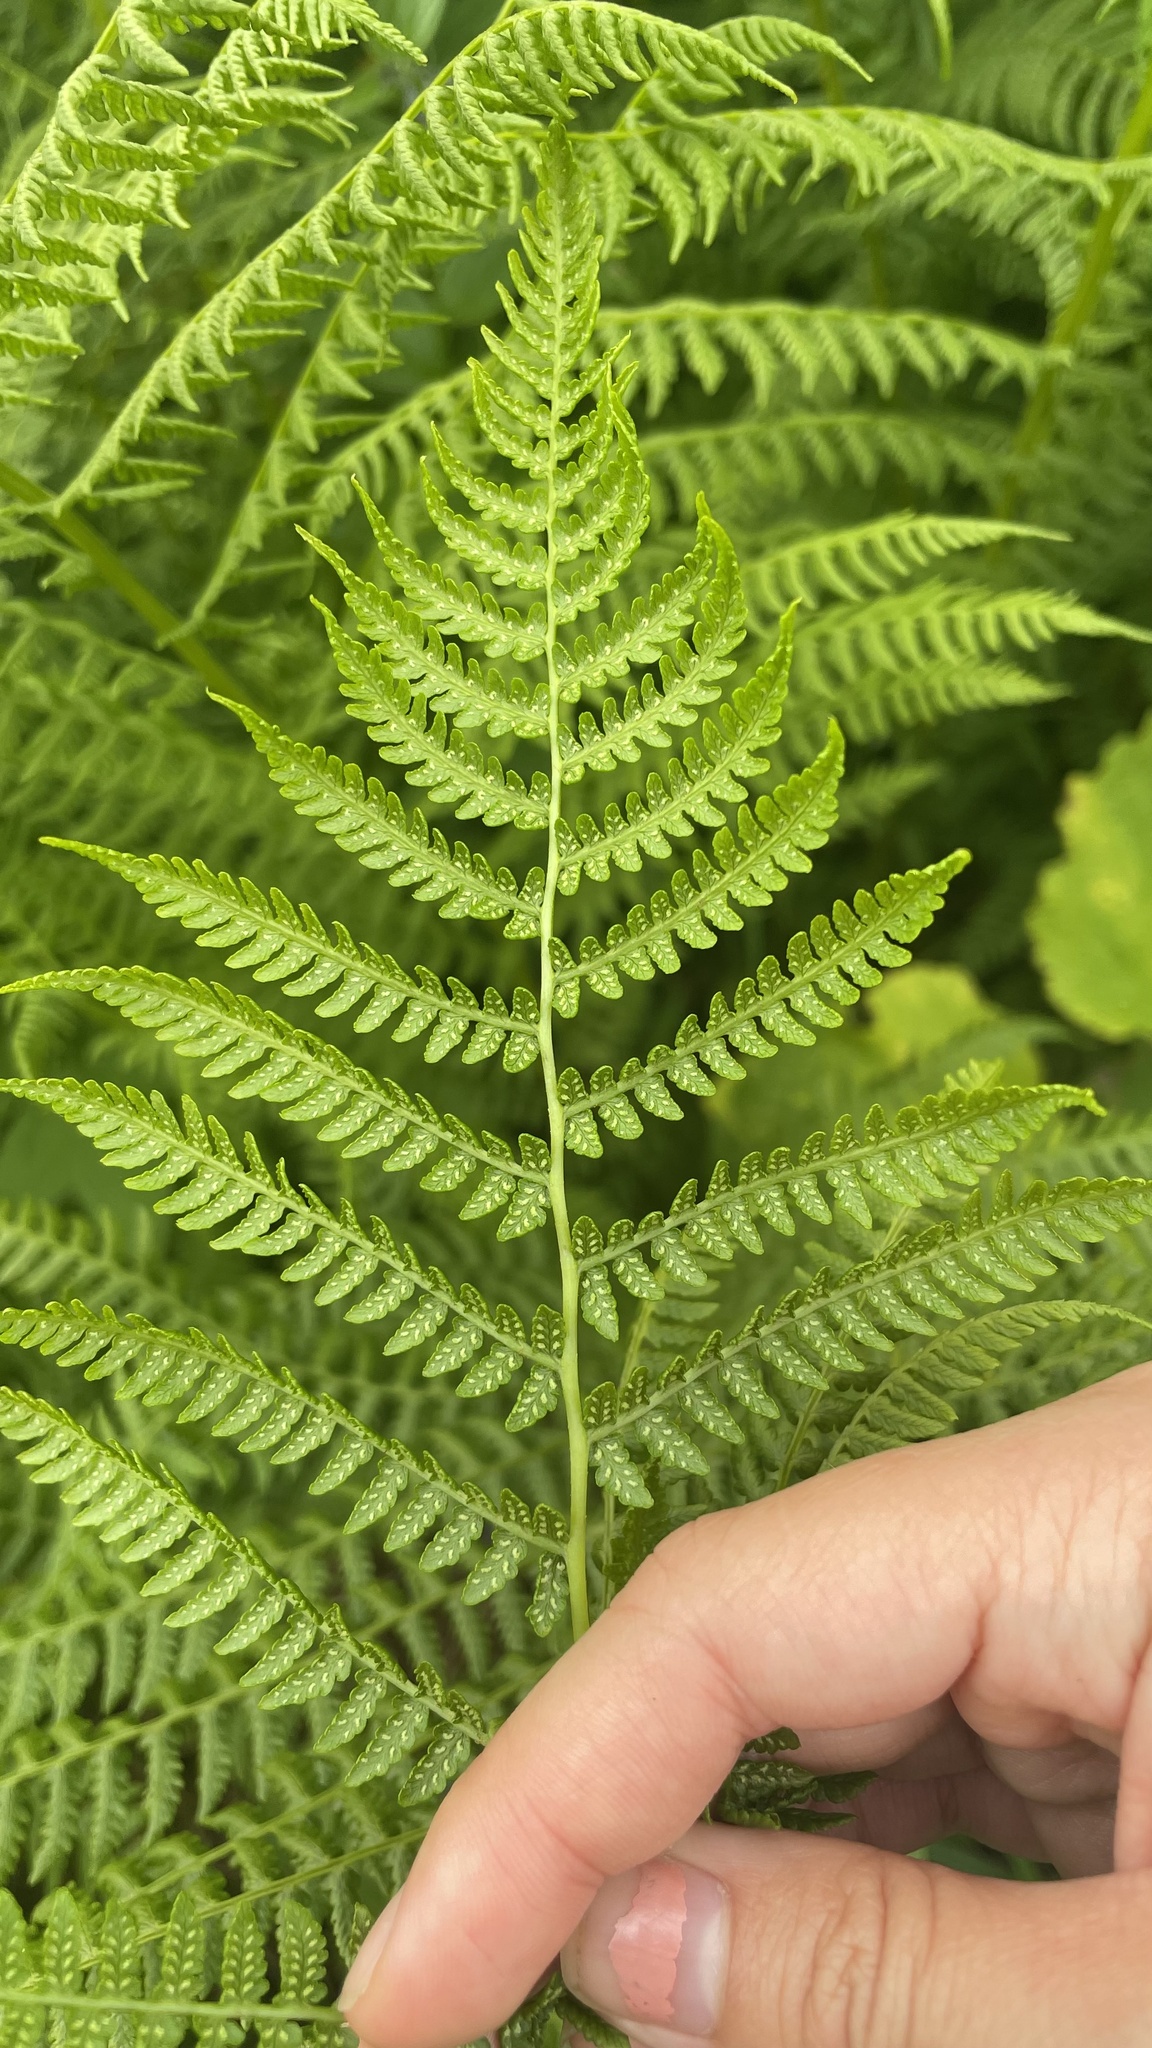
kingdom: Plantae
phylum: Tracheophyta
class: Polypodiopsida
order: Polypodiales
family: Athyriaceae
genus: Athyrium
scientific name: Athyrium filix-femina
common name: Lady fern
